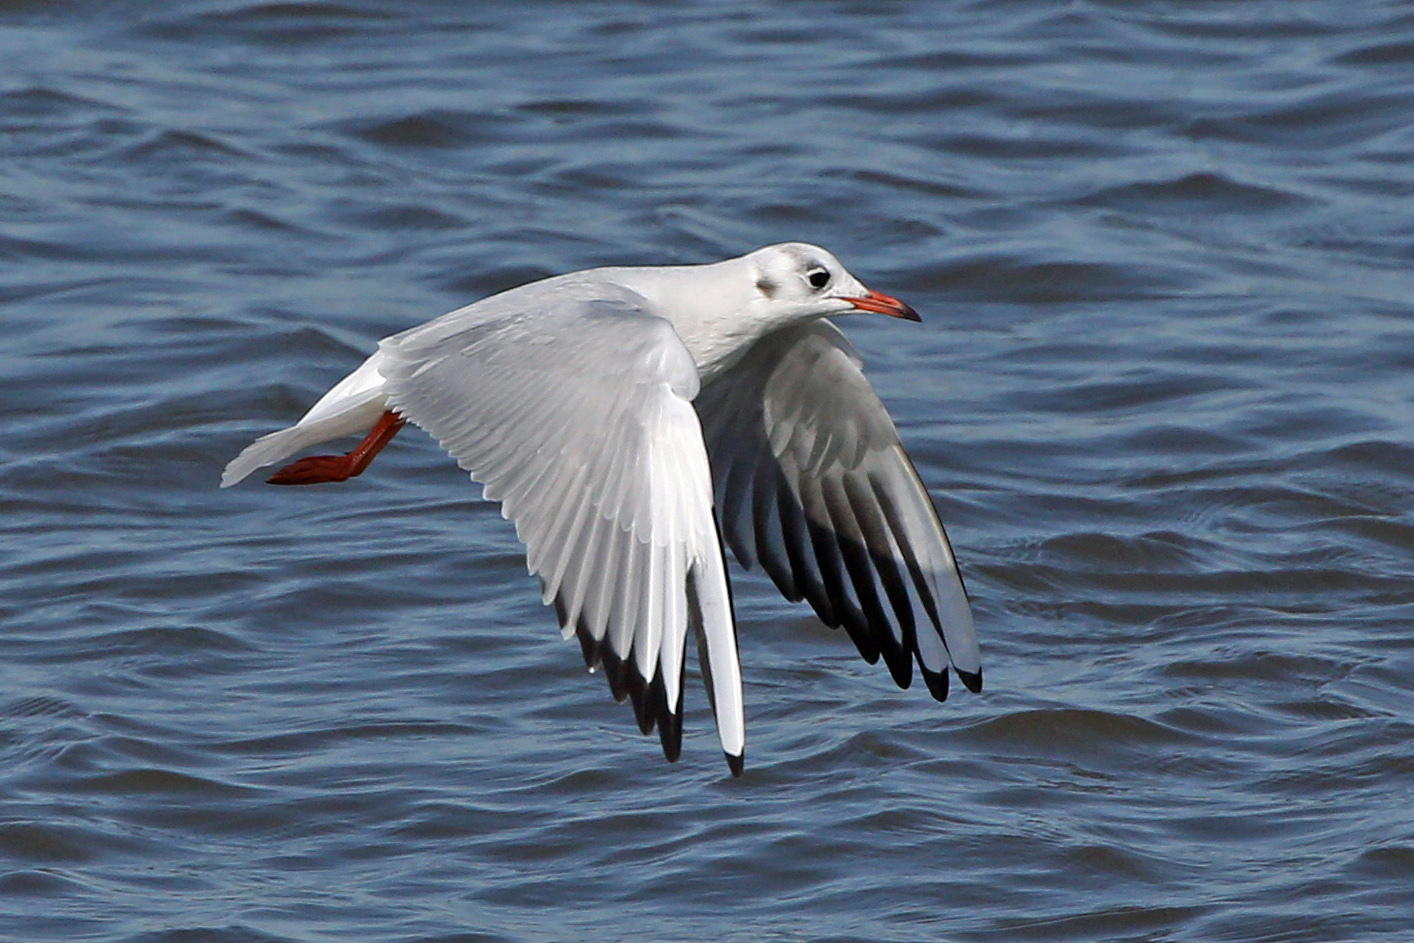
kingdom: Animalia
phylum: Chordata
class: Aves
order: Charadriiformes
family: Laridae
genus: Chroicocephalus
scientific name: Chroicocephalus ridibundus
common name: Black-headed gull
